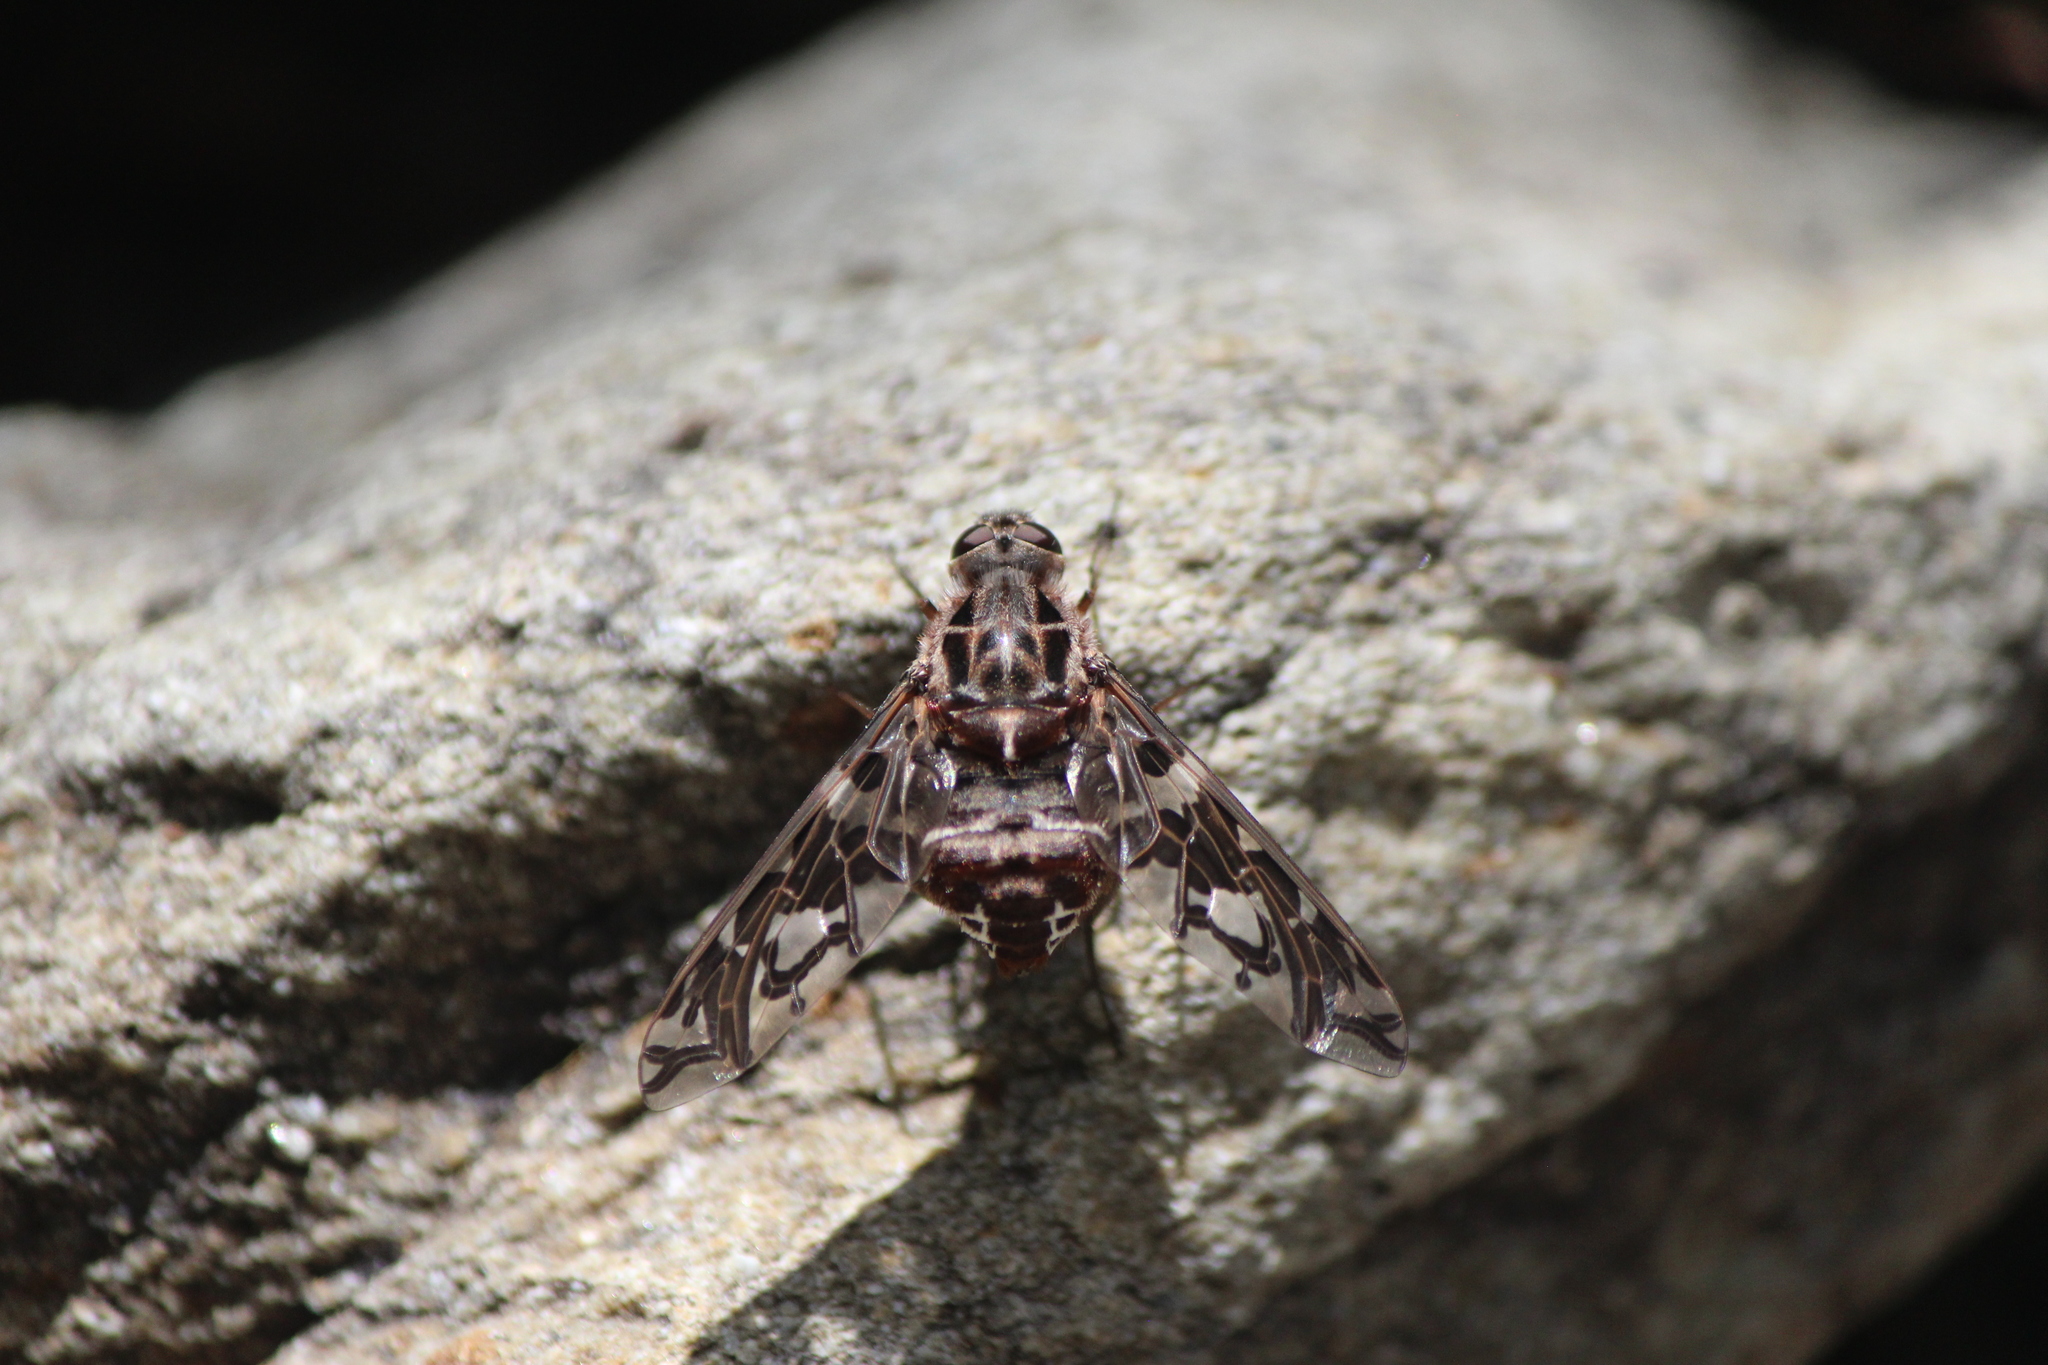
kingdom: Animalia
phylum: Arthropoda
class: Insecta
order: Diptera
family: Bombyliidae
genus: Xenox
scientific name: Xenox habrosus
